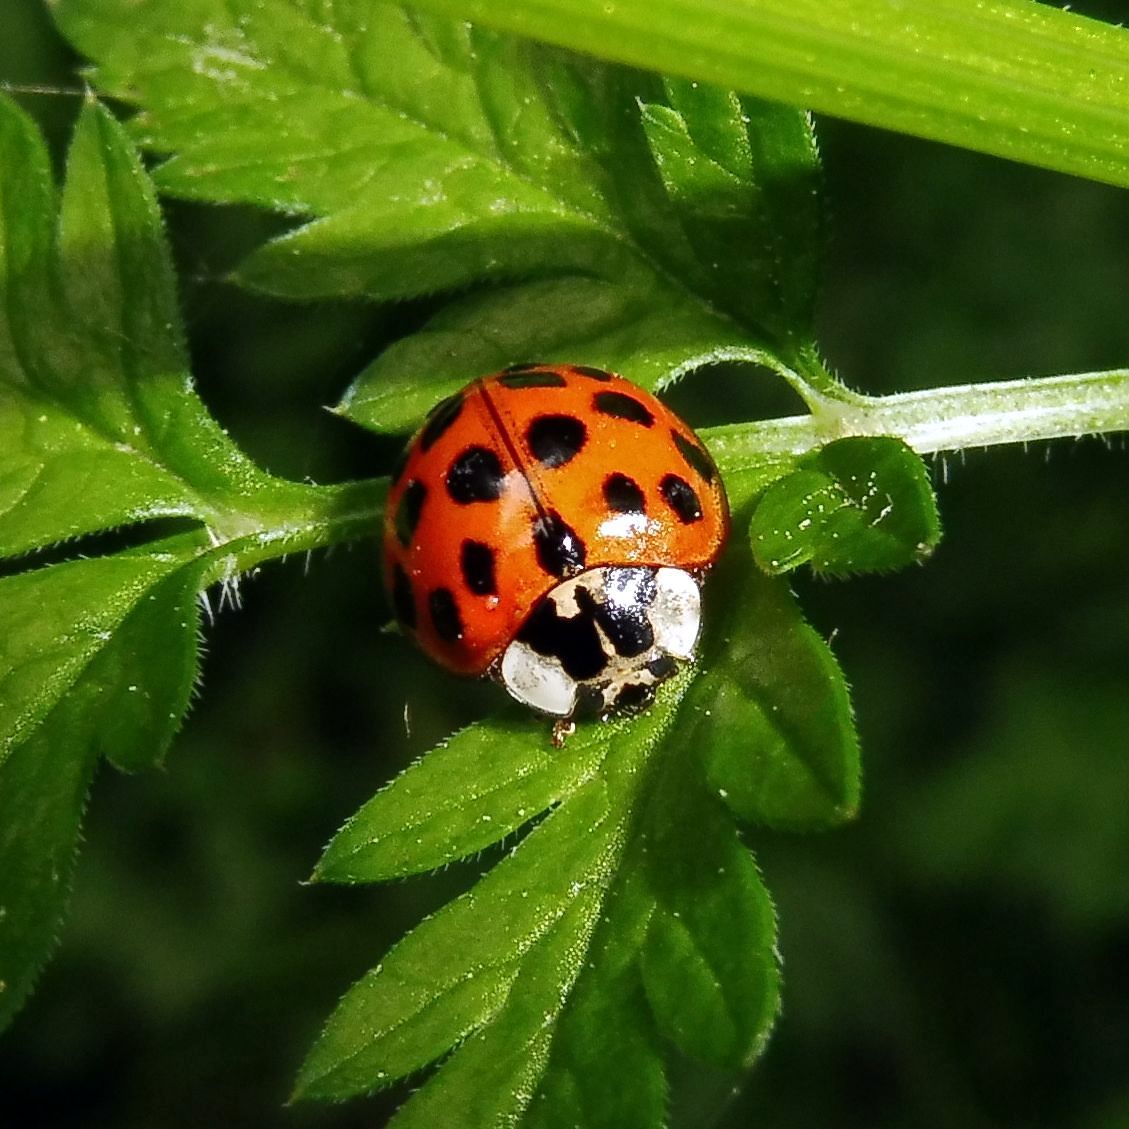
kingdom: Animalia
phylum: Arthropoda
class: Insecta
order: Coleoptera
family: Coccinellidae
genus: Harmonia
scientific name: Harmonia axyridis
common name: Harlequin ladybird
